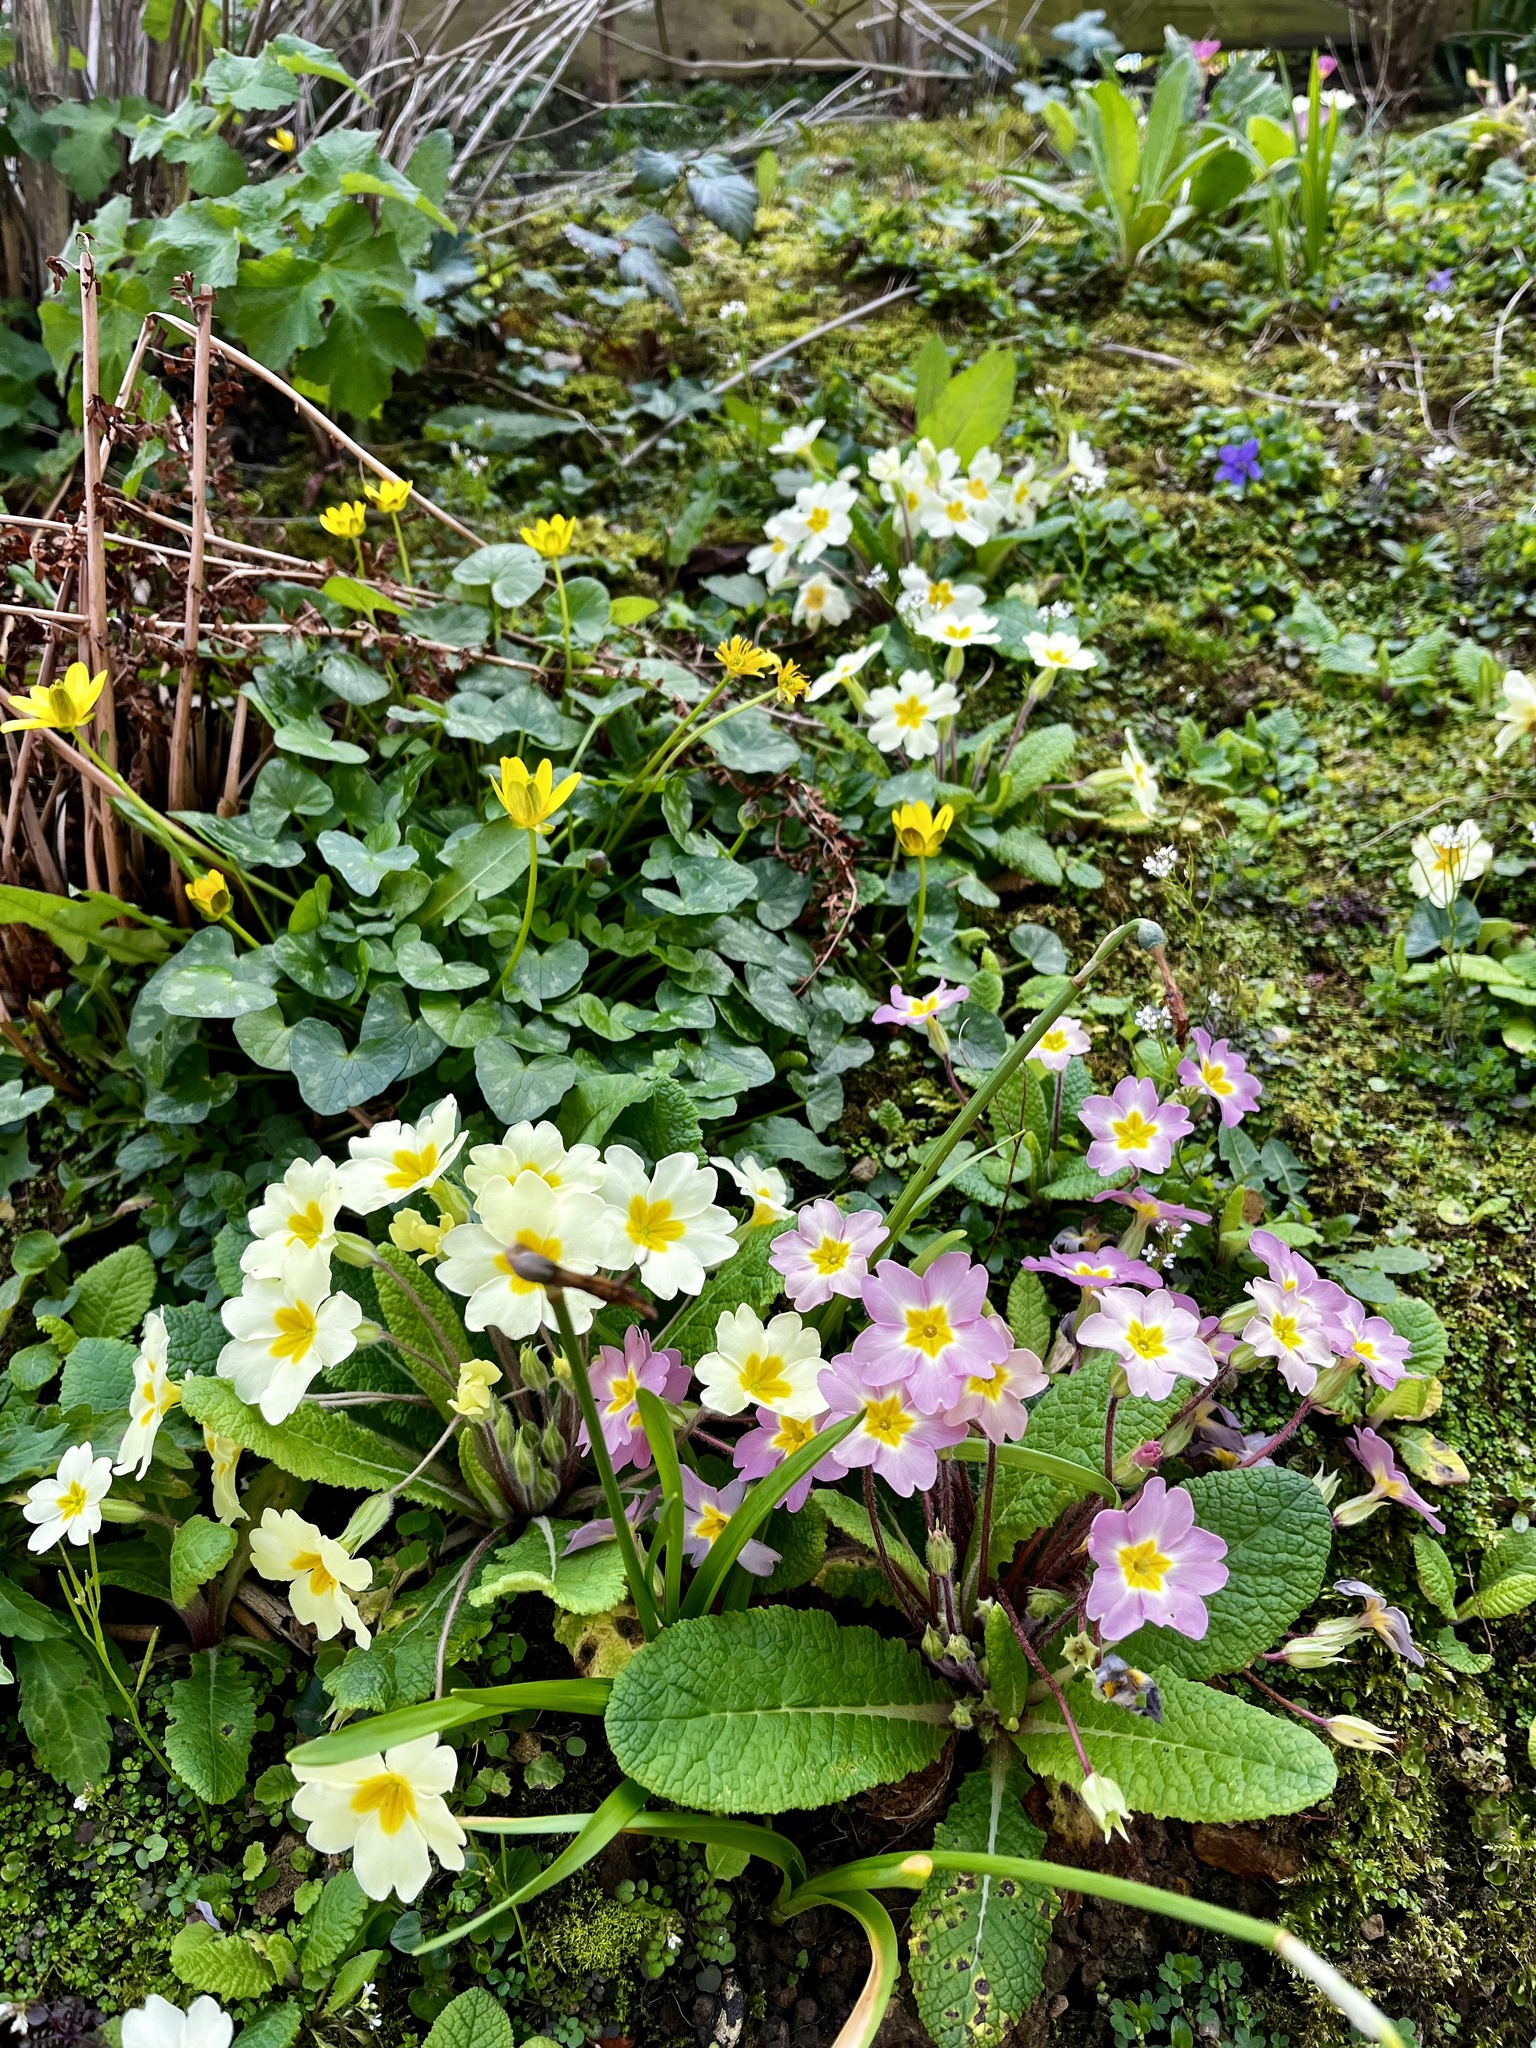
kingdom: Plantae
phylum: Tracheophyta
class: Magnoliopsida
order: Ericales
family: Primulaceae
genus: Primula
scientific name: Primula vulgaris
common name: Primrose
